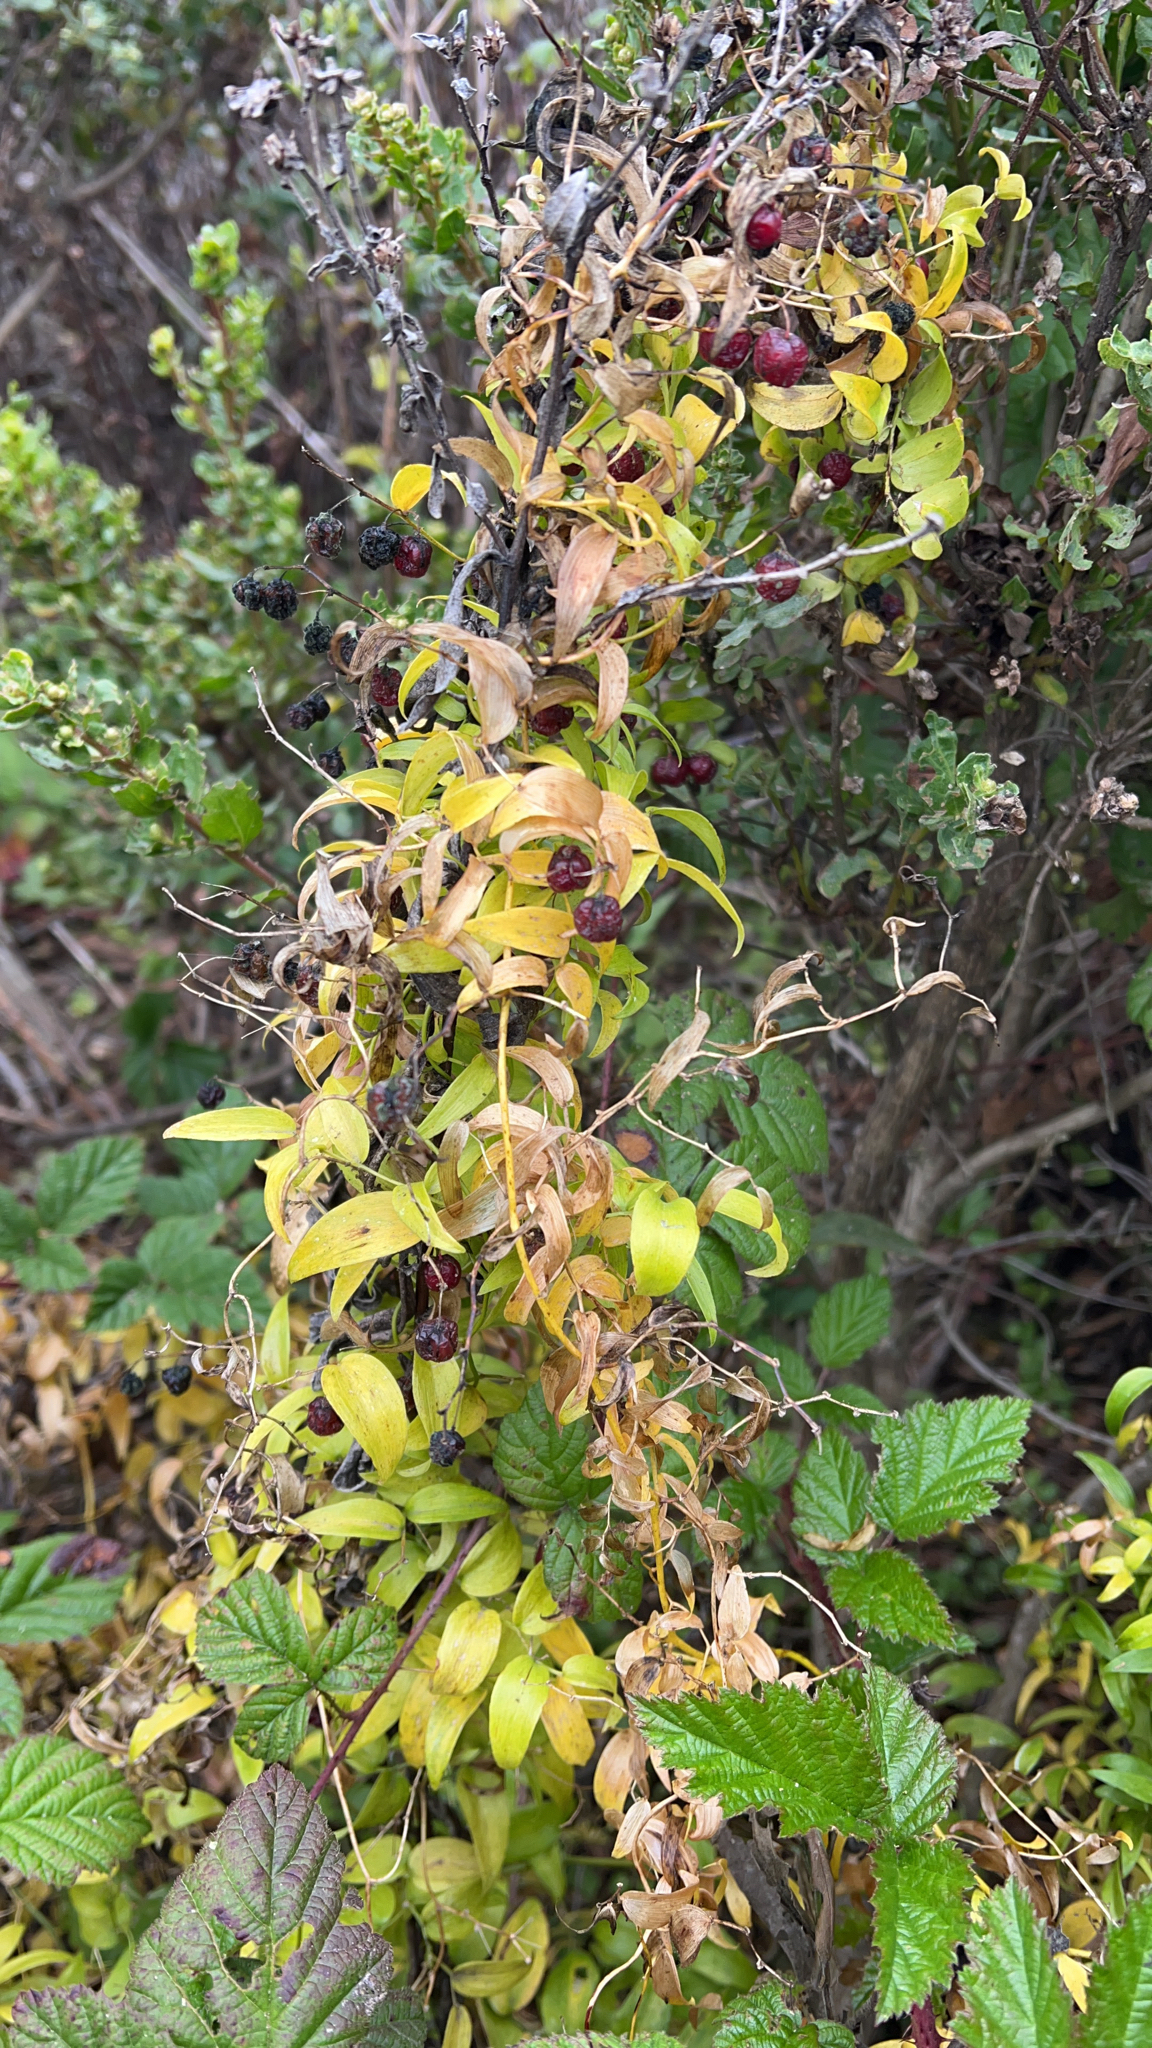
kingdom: Plantae
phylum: Tracheophyta
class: Liliopsida
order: Asparagales
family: Asparagaceae
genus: Asparagus
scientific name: Asparagus asparagoides
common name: African asparagus fern
